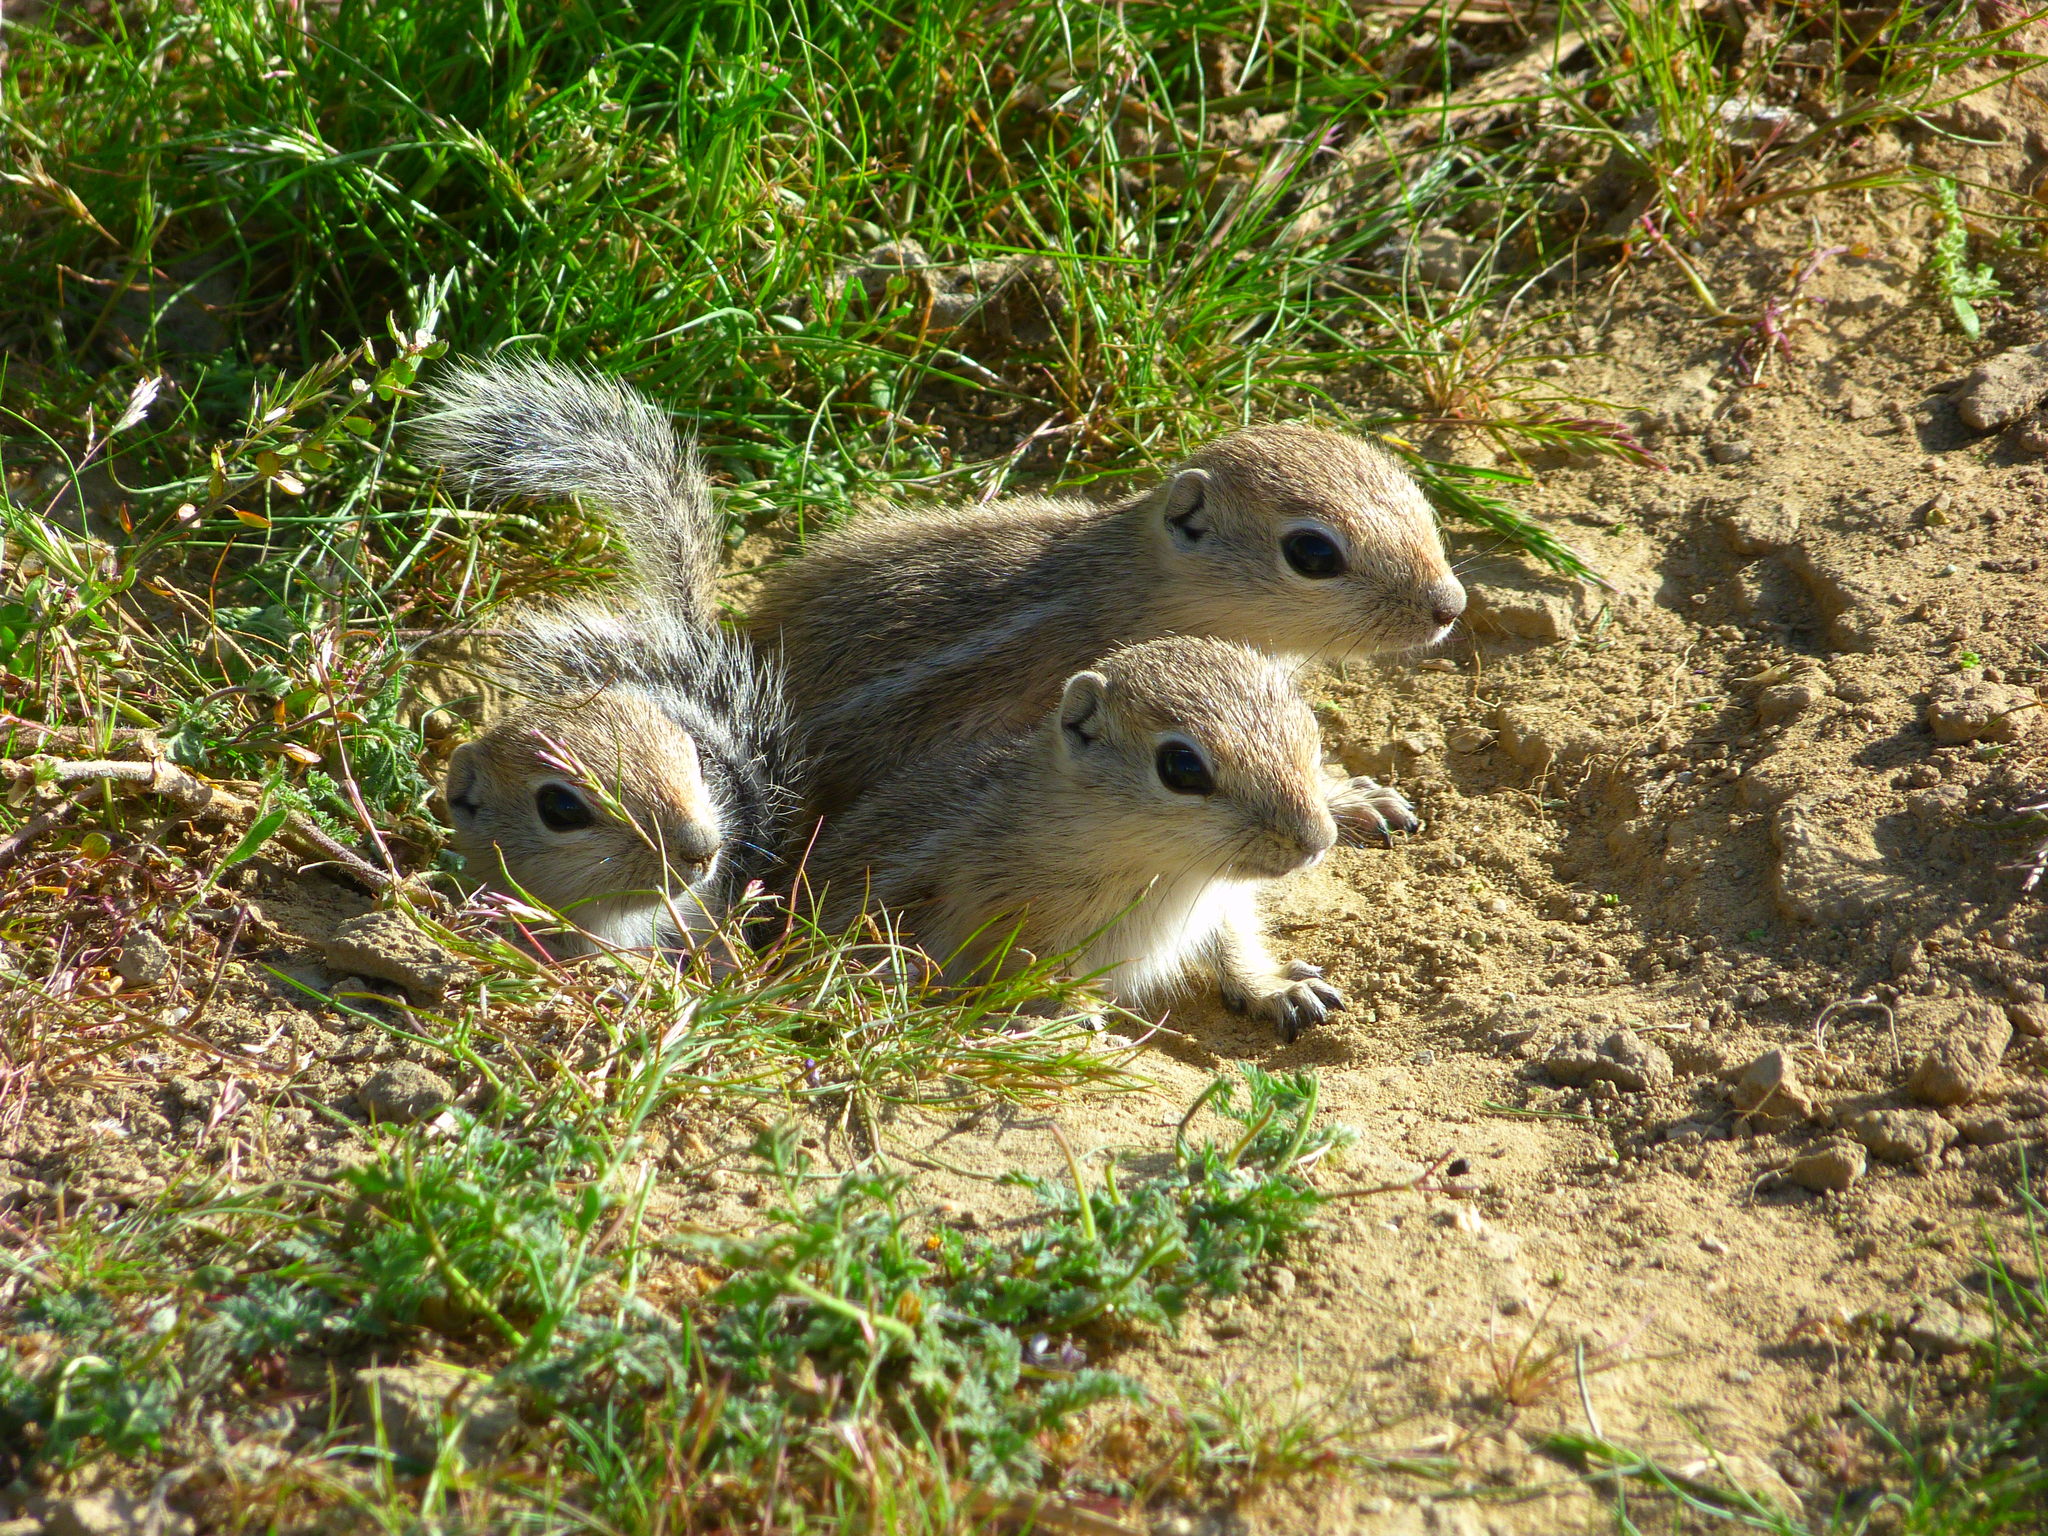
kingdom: Animalia
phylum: Chordata
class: Mammalia
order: Rodentia
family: Sciuridae
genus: Ammospermophilus
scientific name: Ammospermophilus nelsoni
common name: Nelson's antelope squirrel
